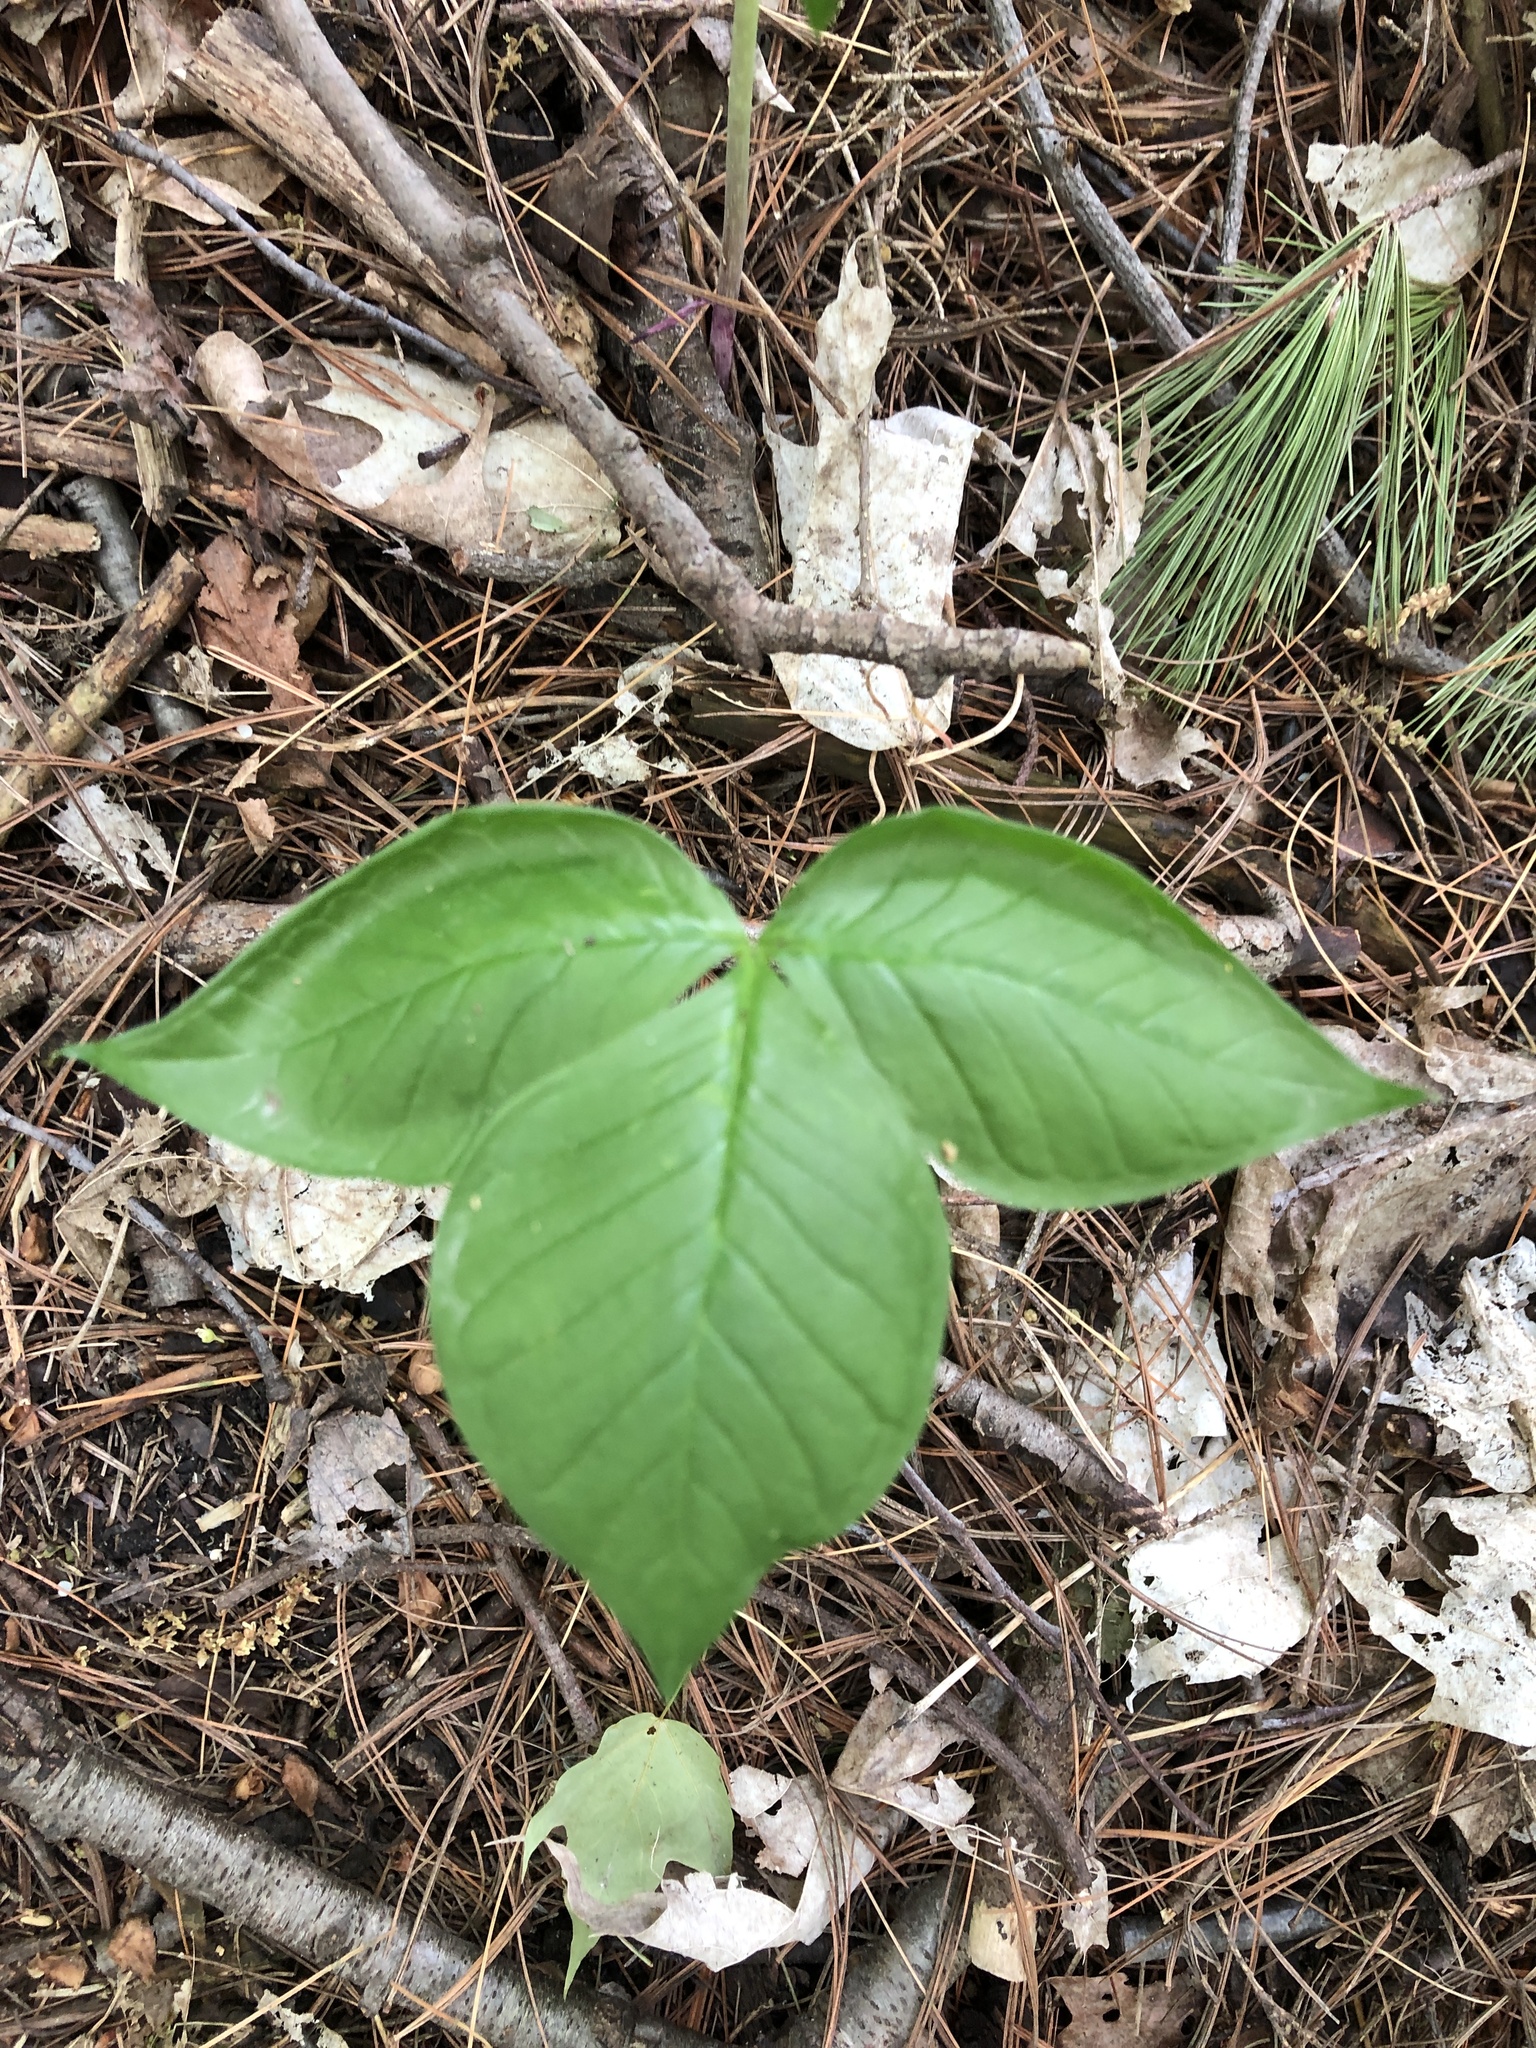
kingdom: Plantae
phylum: Tracheophyta
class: Liliopsida
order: Alismatales
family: Araceae
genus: Arisaema
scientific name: Arisaema triphyllum
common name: Jack-in-the-pulpit
